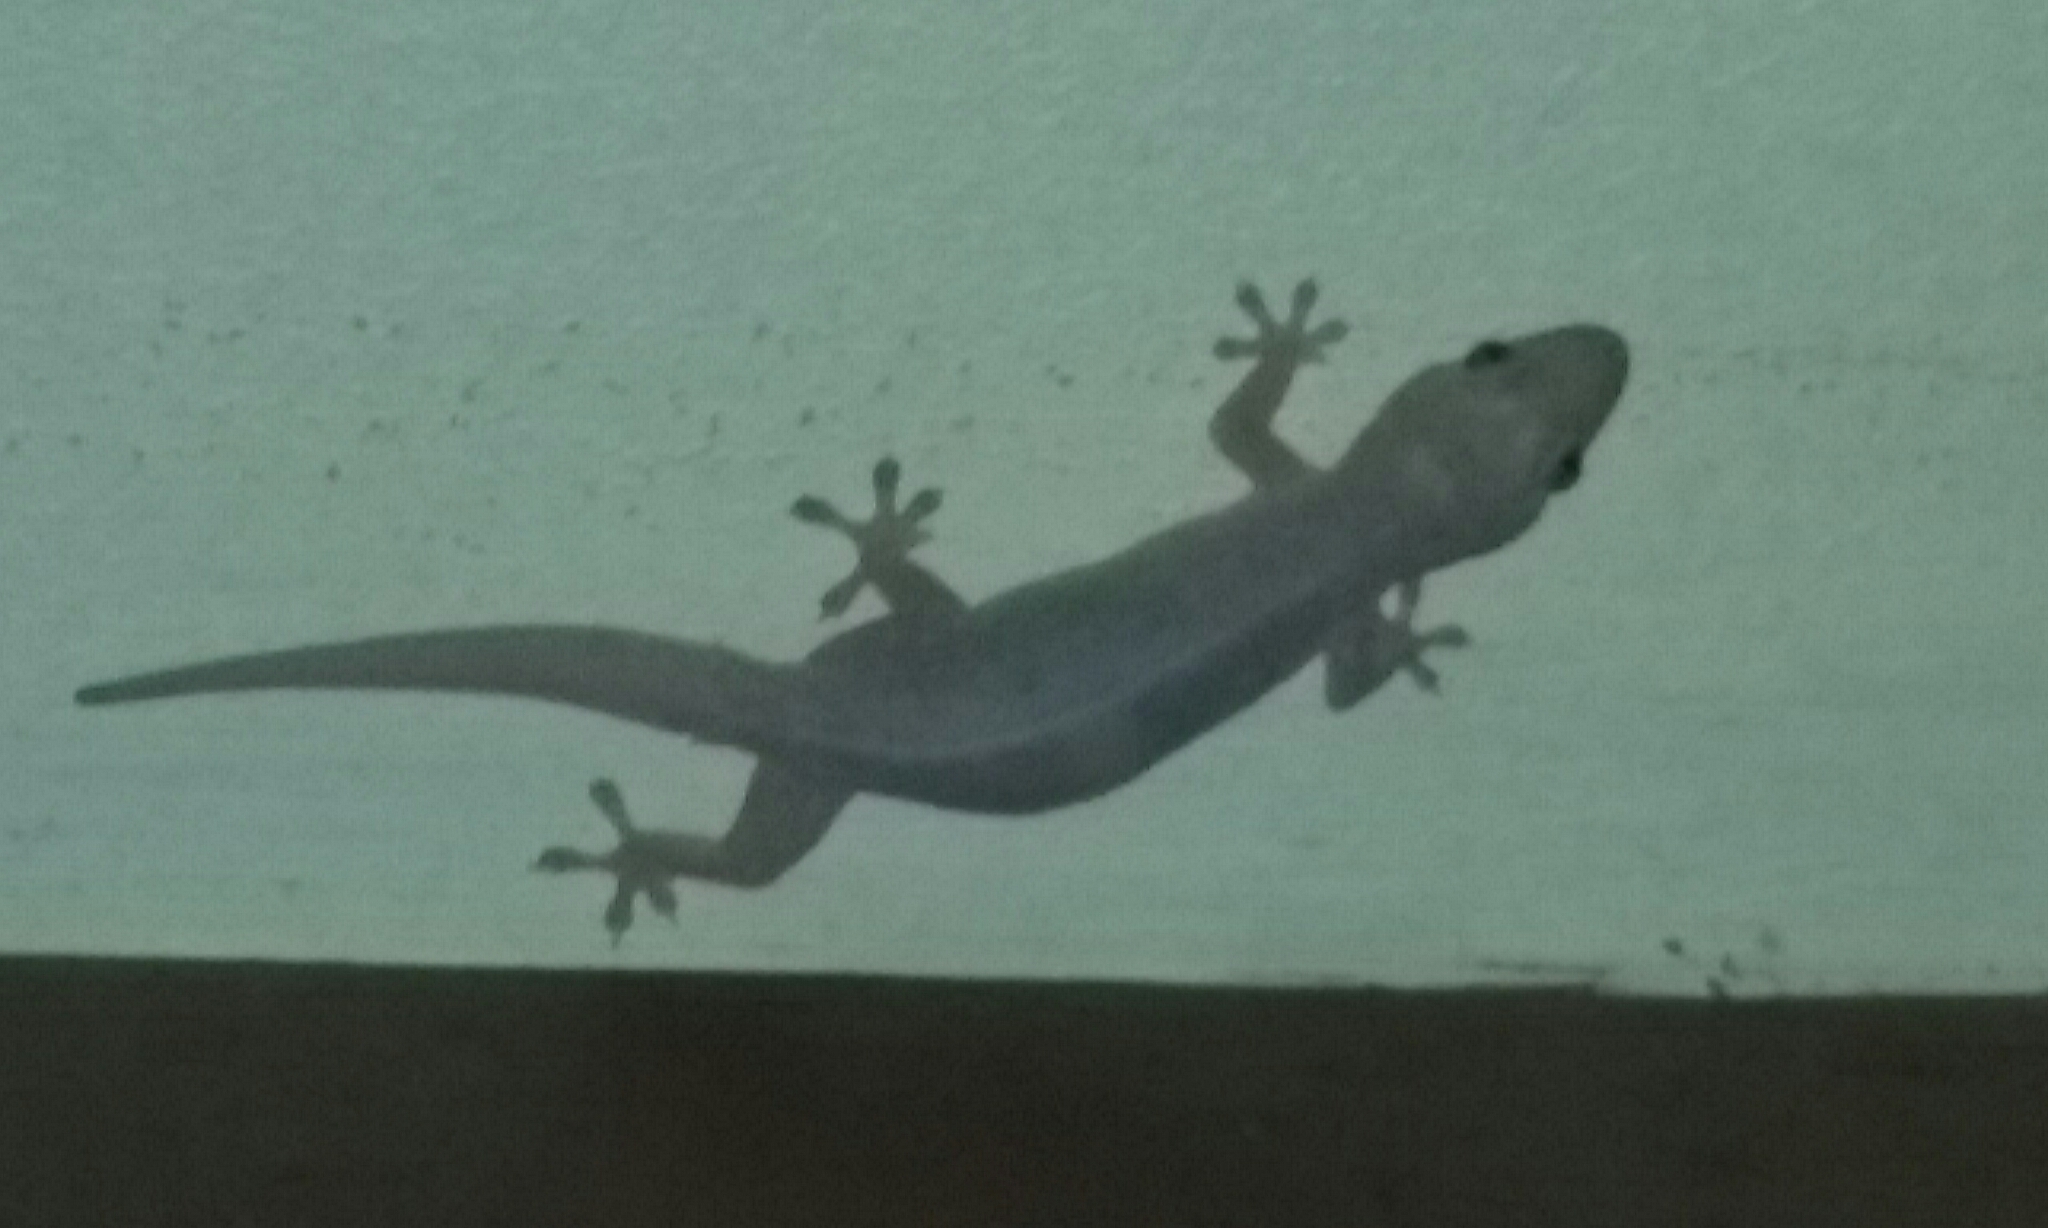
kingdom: Animalia
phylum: Chordata
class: Squamata
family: Gekkonidae
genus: Hemidactylus
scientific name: Hemidactylus frenatus
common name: Common house gecko
